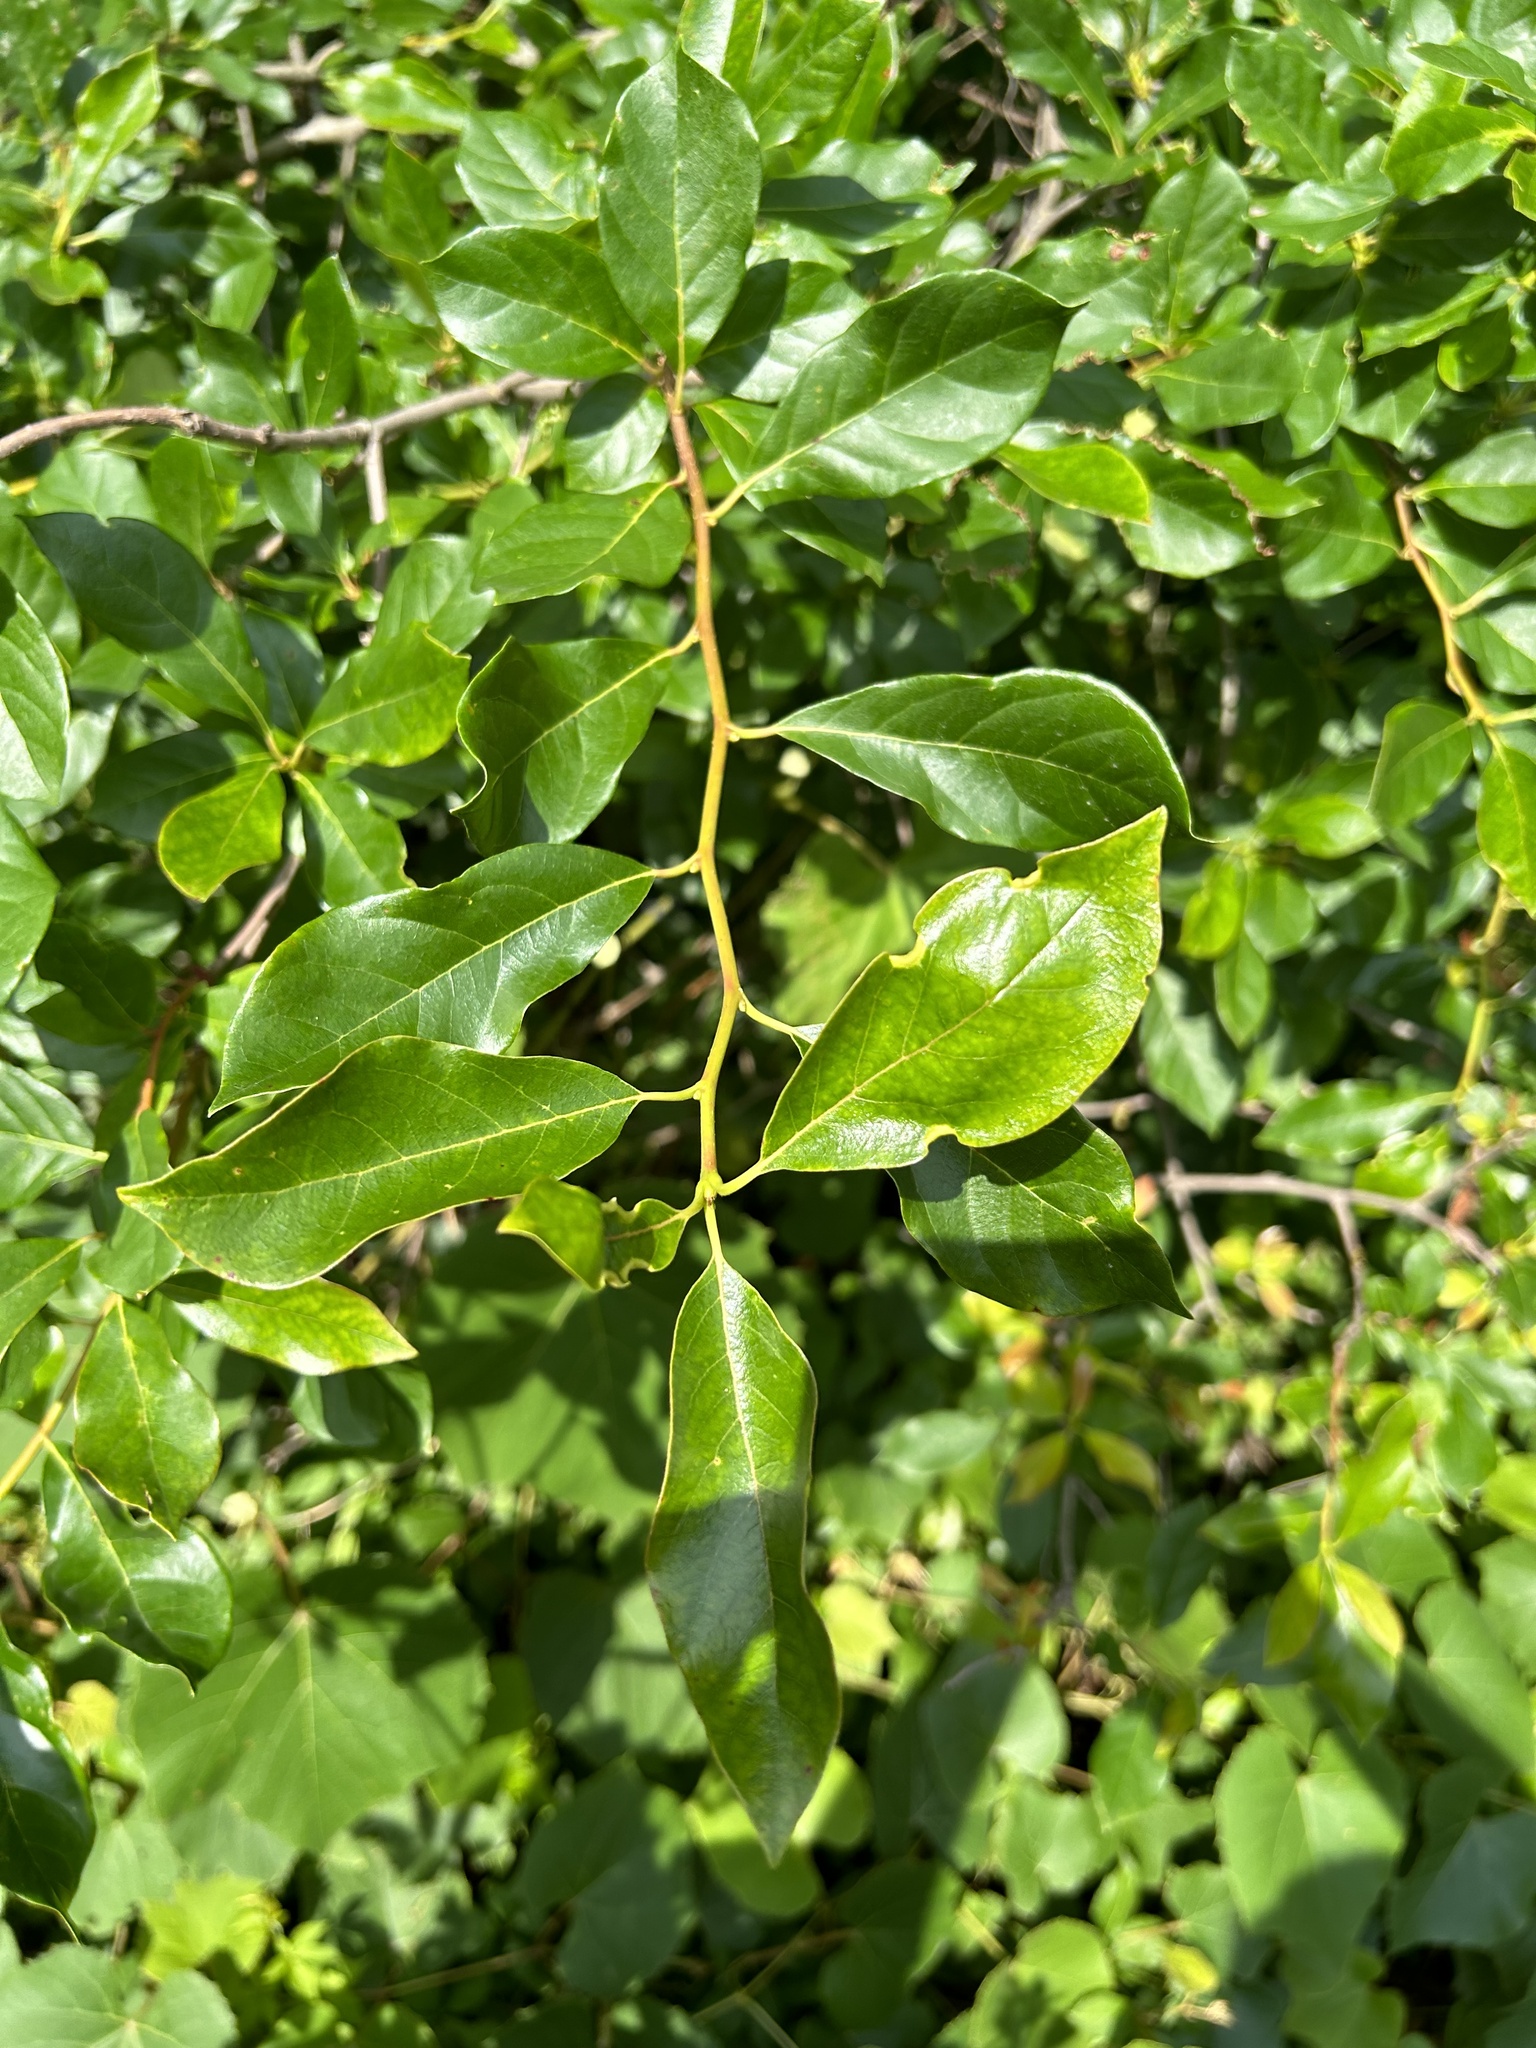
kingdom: Plantae
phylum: Tracheophyta
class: Magnoliopsida
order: Cornales
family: Nyssaceae
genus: Nyssa
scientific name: Nyssa sylvatica
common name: Black tupelo
